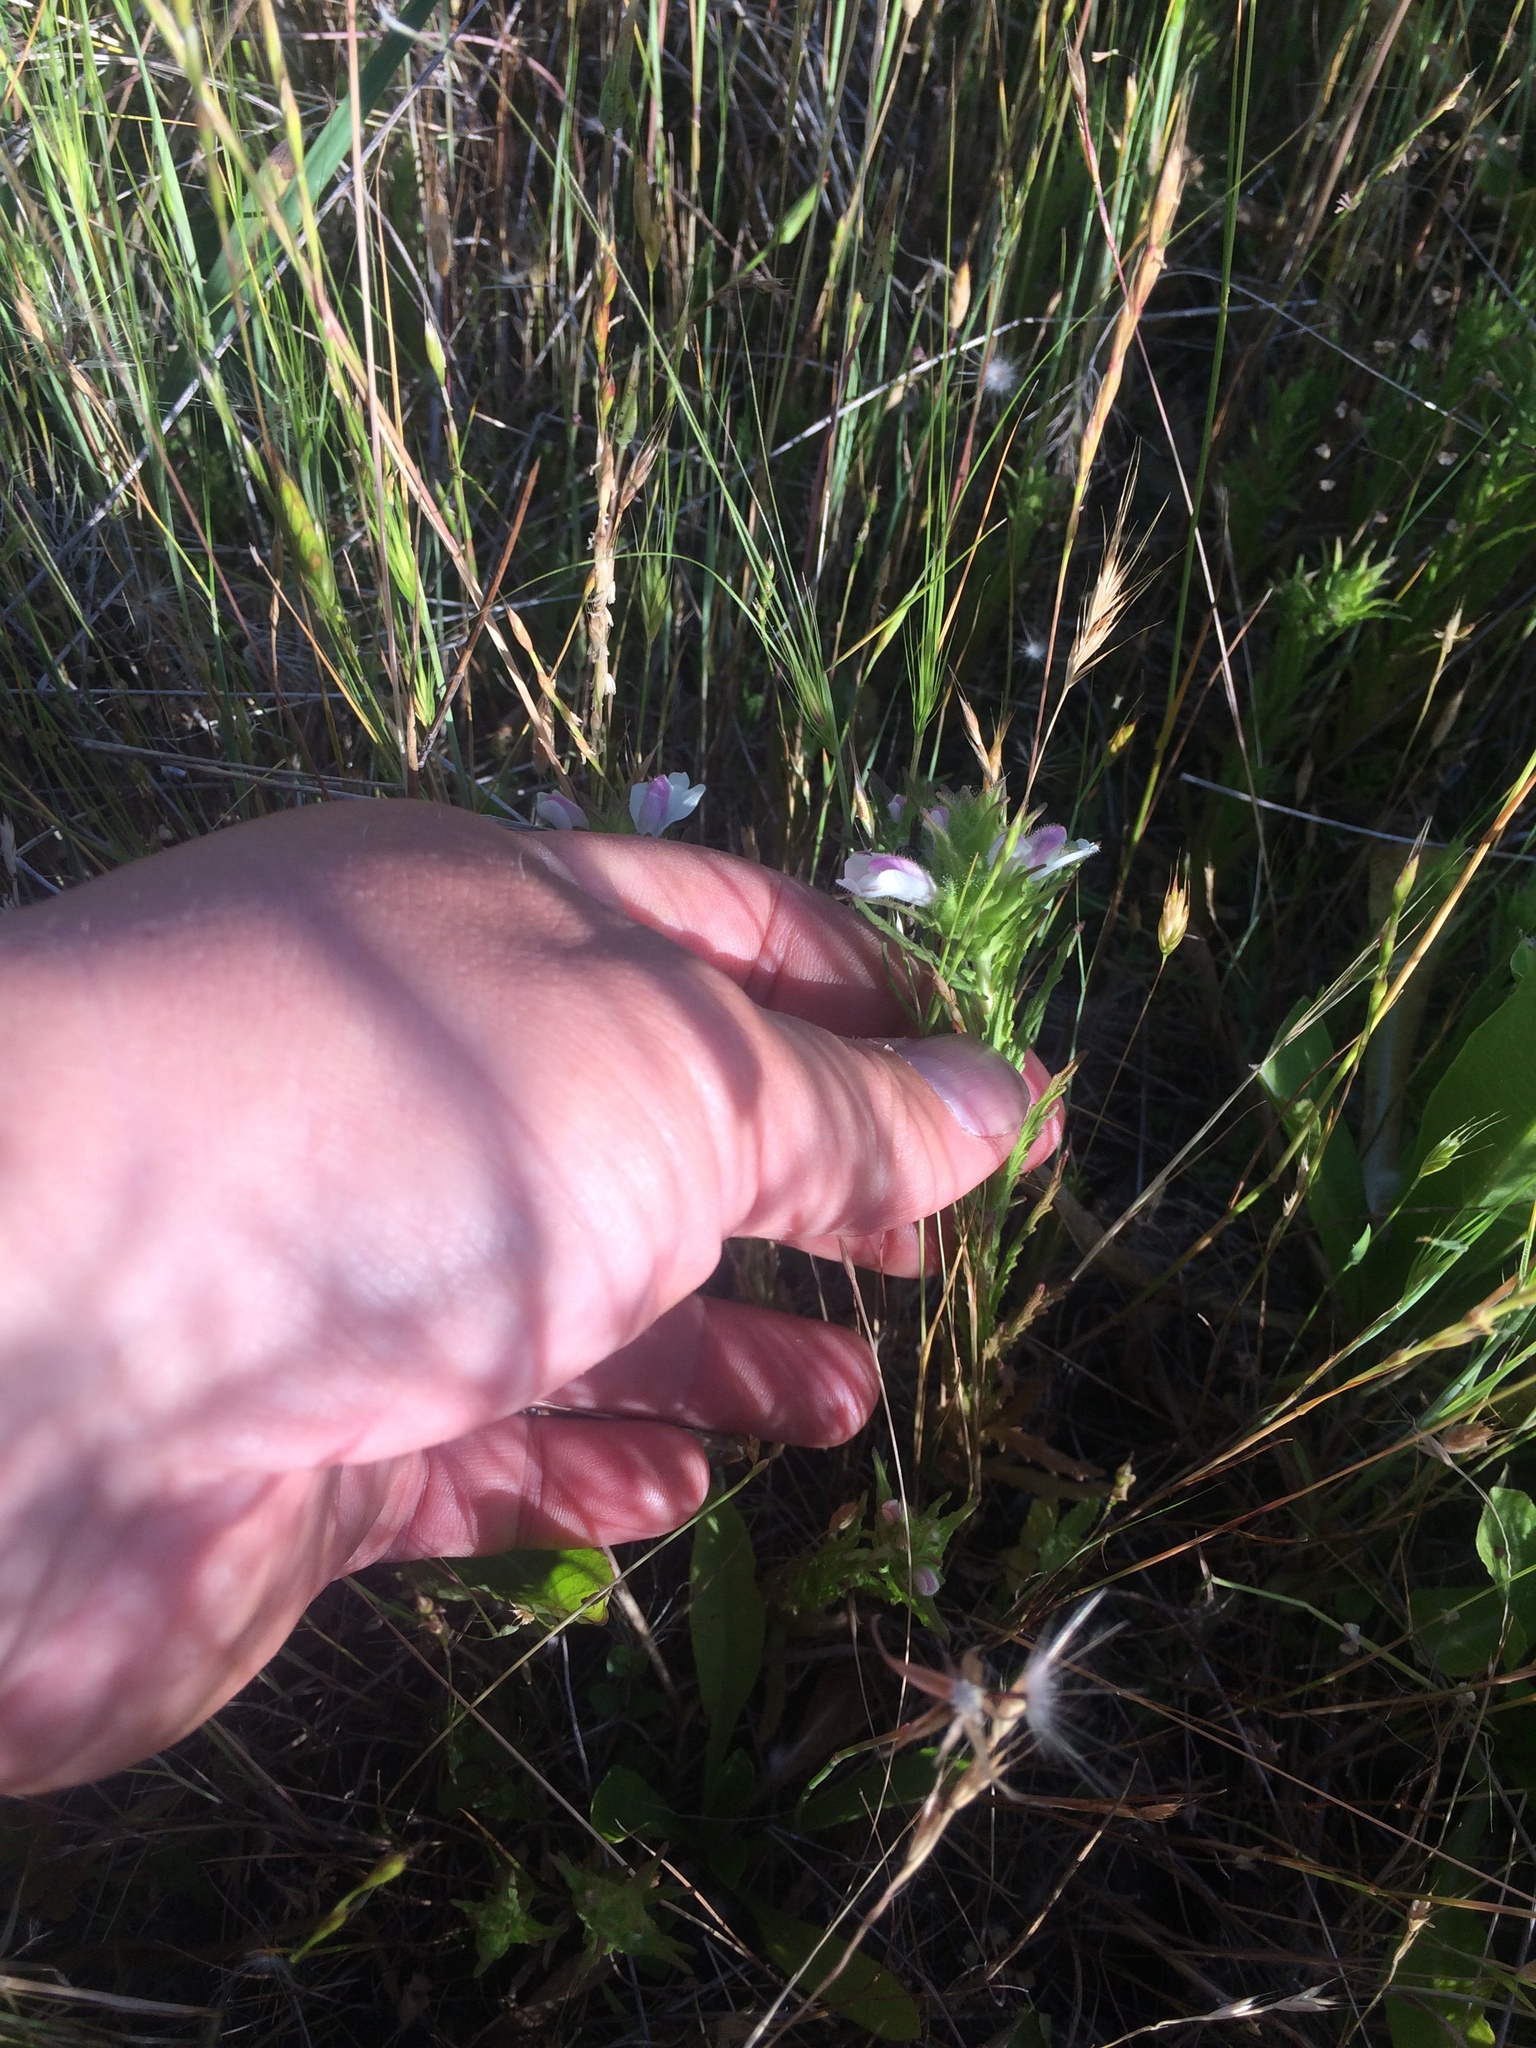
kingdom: Plantae
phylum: Tracheophyta
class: Magnoliopsida
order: Lamiales
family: Orobanchaceae
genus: Bellardia
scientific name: Bellardia trixago
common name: Mediterranean lineseed
